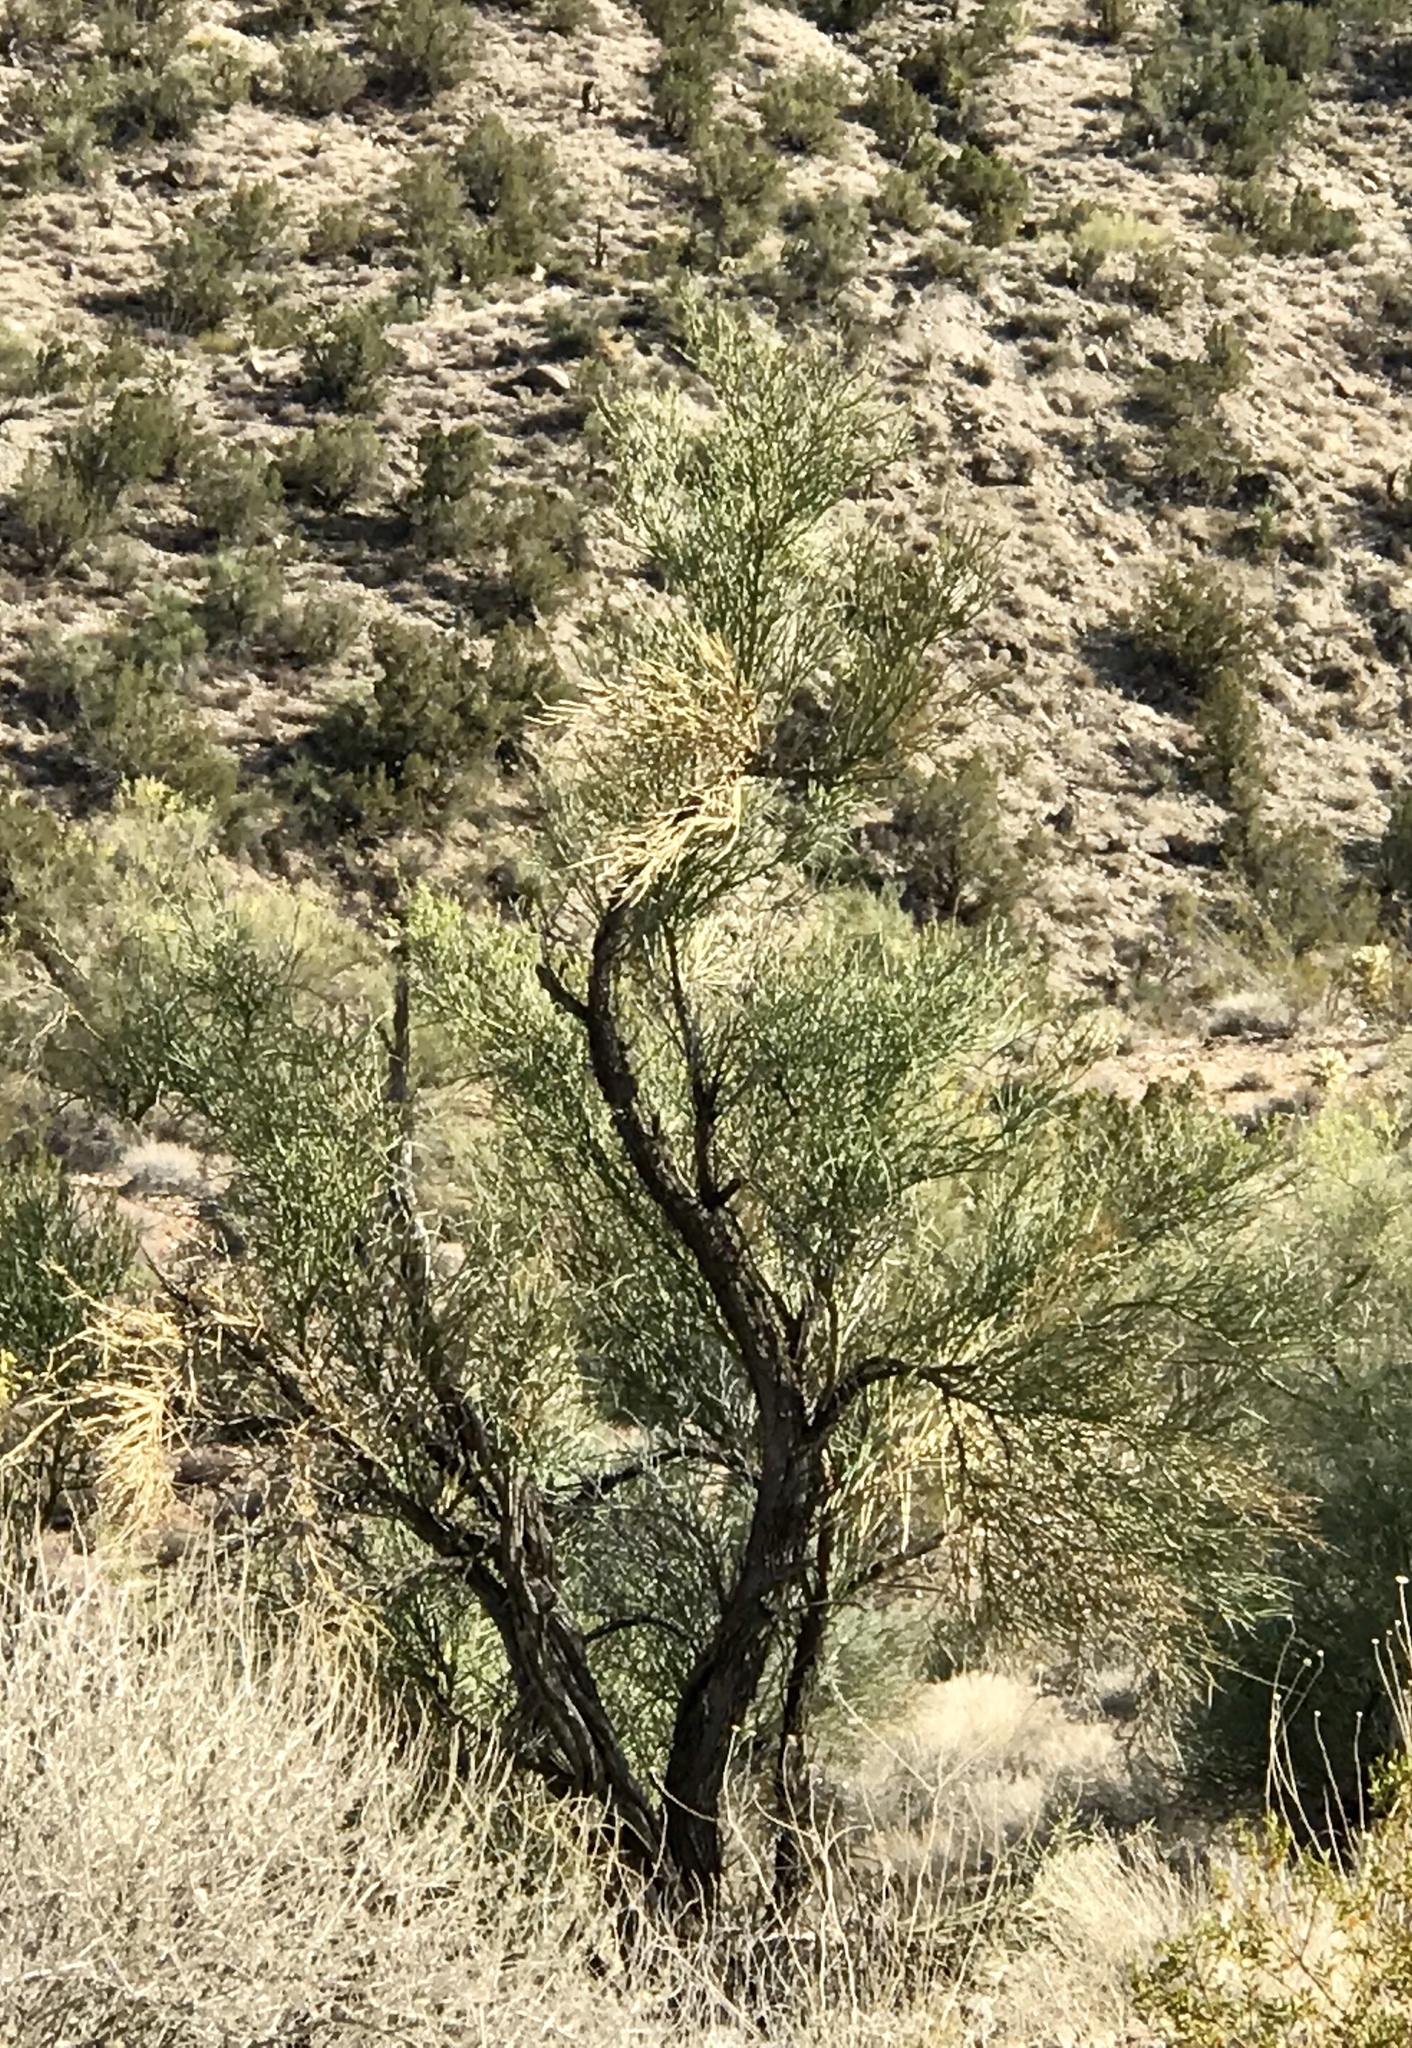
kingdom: Plantae
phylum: Tracheophyta
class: Magnoliopsida
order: Celastrales
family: Celastraceae
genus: Canotia
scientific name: Canotia holacantha
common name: Crucifixion thorns
